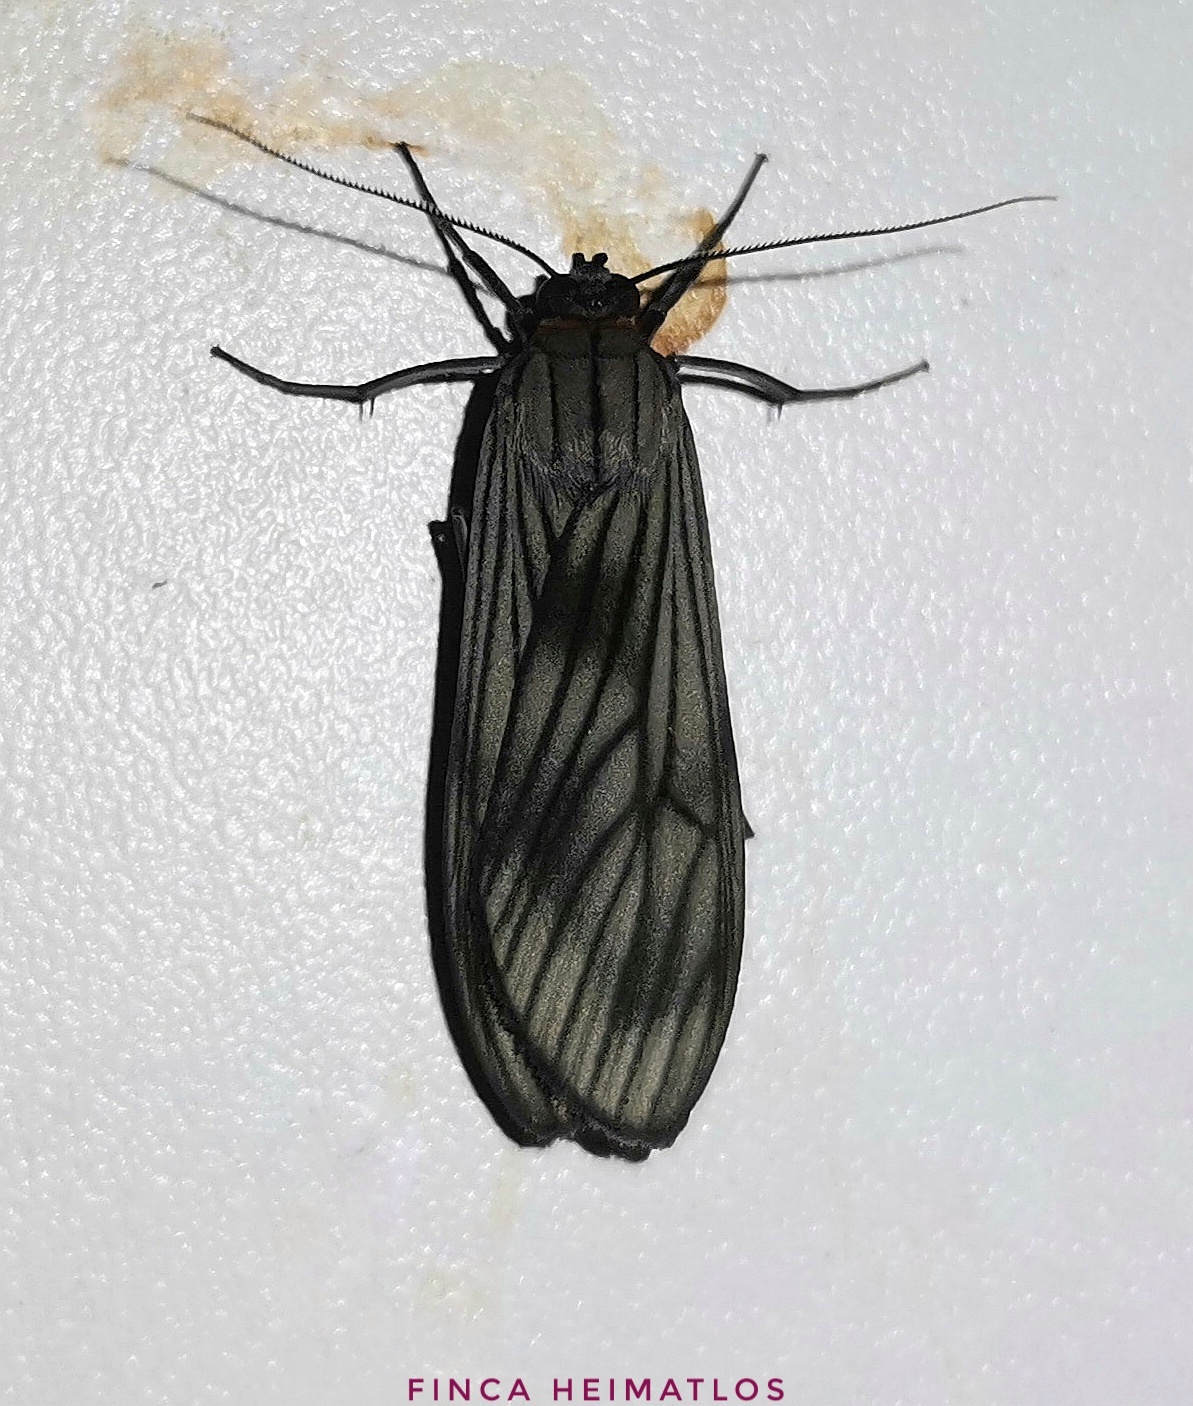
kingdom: Animalia
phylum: Arthropoda
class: Insecta
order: Lepidoptera
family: Erebidae
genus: Hyaleucerea
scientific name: Hyaleucerea morosa
